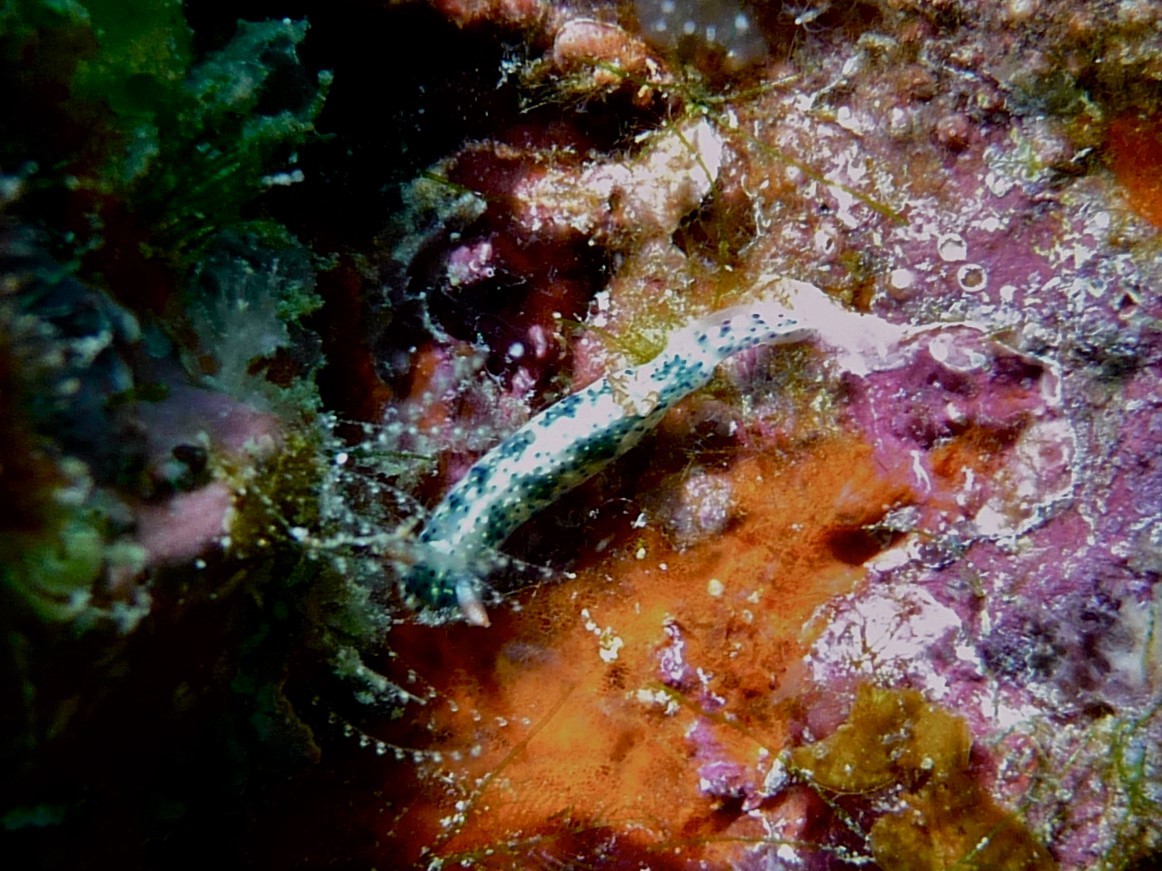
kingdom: Animalia
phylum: Mollusca
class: Gastropoda
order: Nudibranchia
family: Chromodorididae
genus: Hypselodoris
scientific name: Hypselodoris infucata
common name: Mottled dorid
